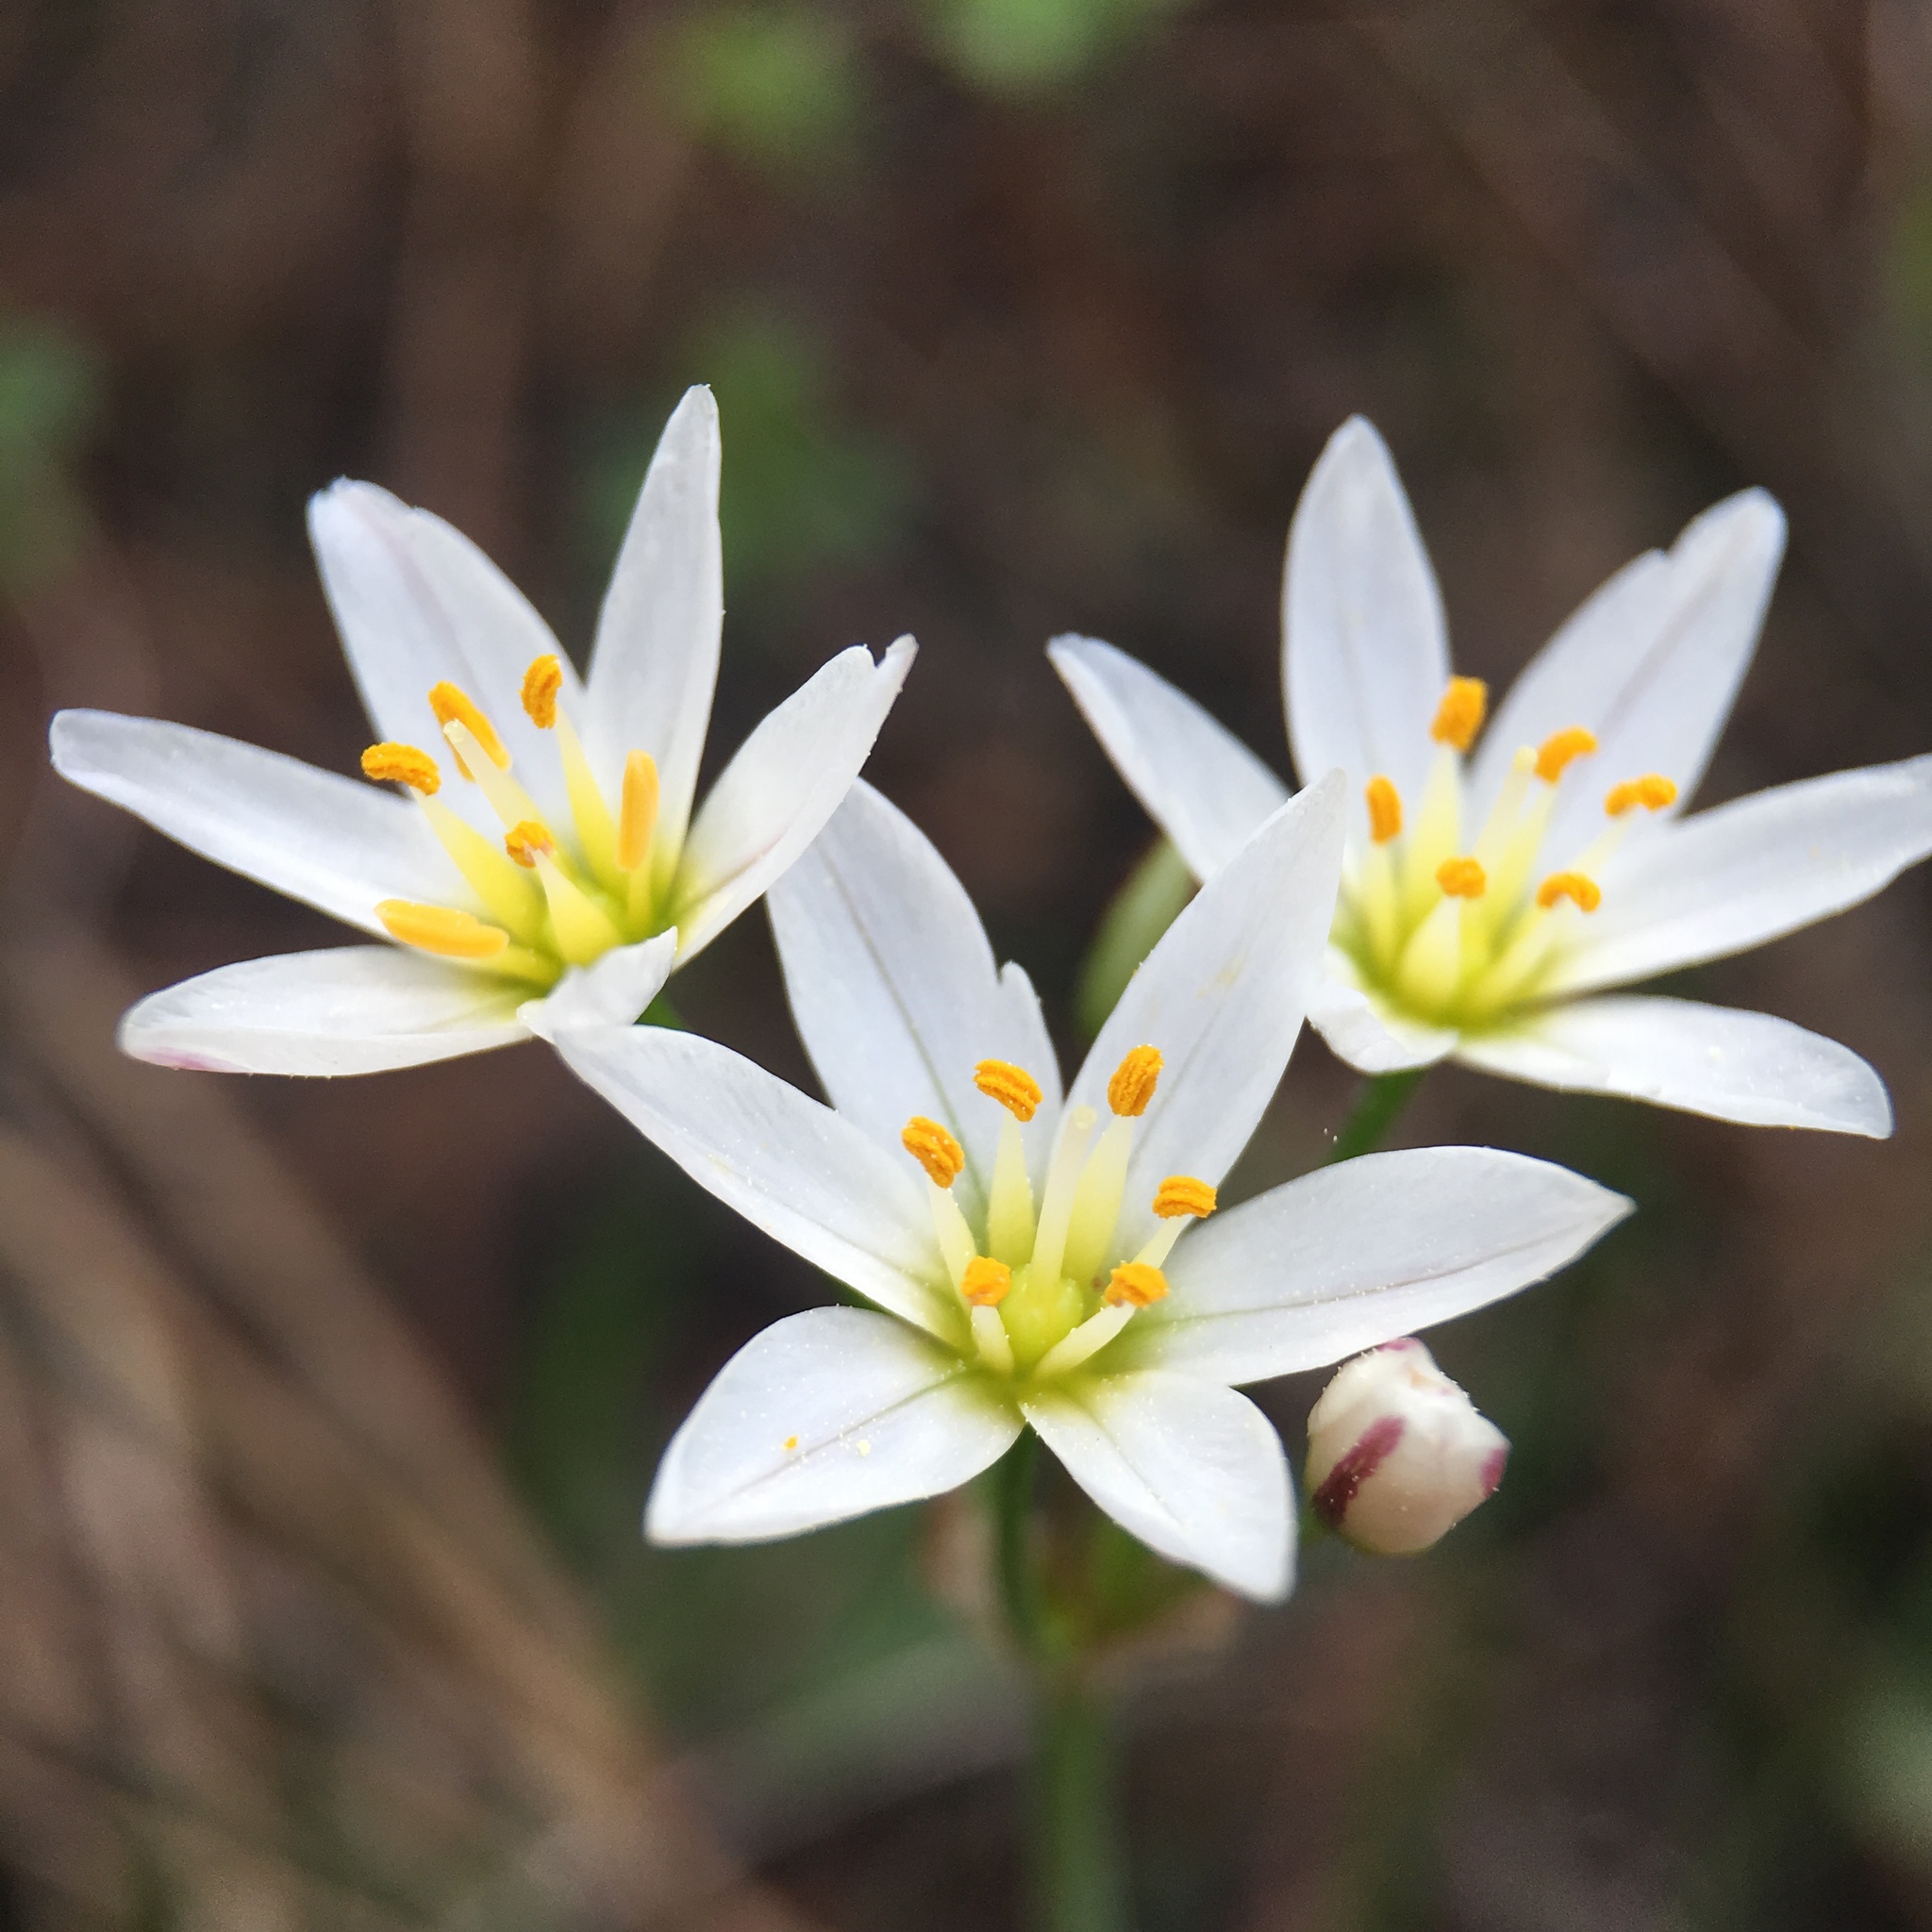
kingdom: Plantae
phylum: Tracheophyta
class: Liliopsida
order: Asparagales
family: Amaryllidaceae
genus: Nothoscordum
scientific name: Nothoscordum bivalve
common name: Crow-poison
